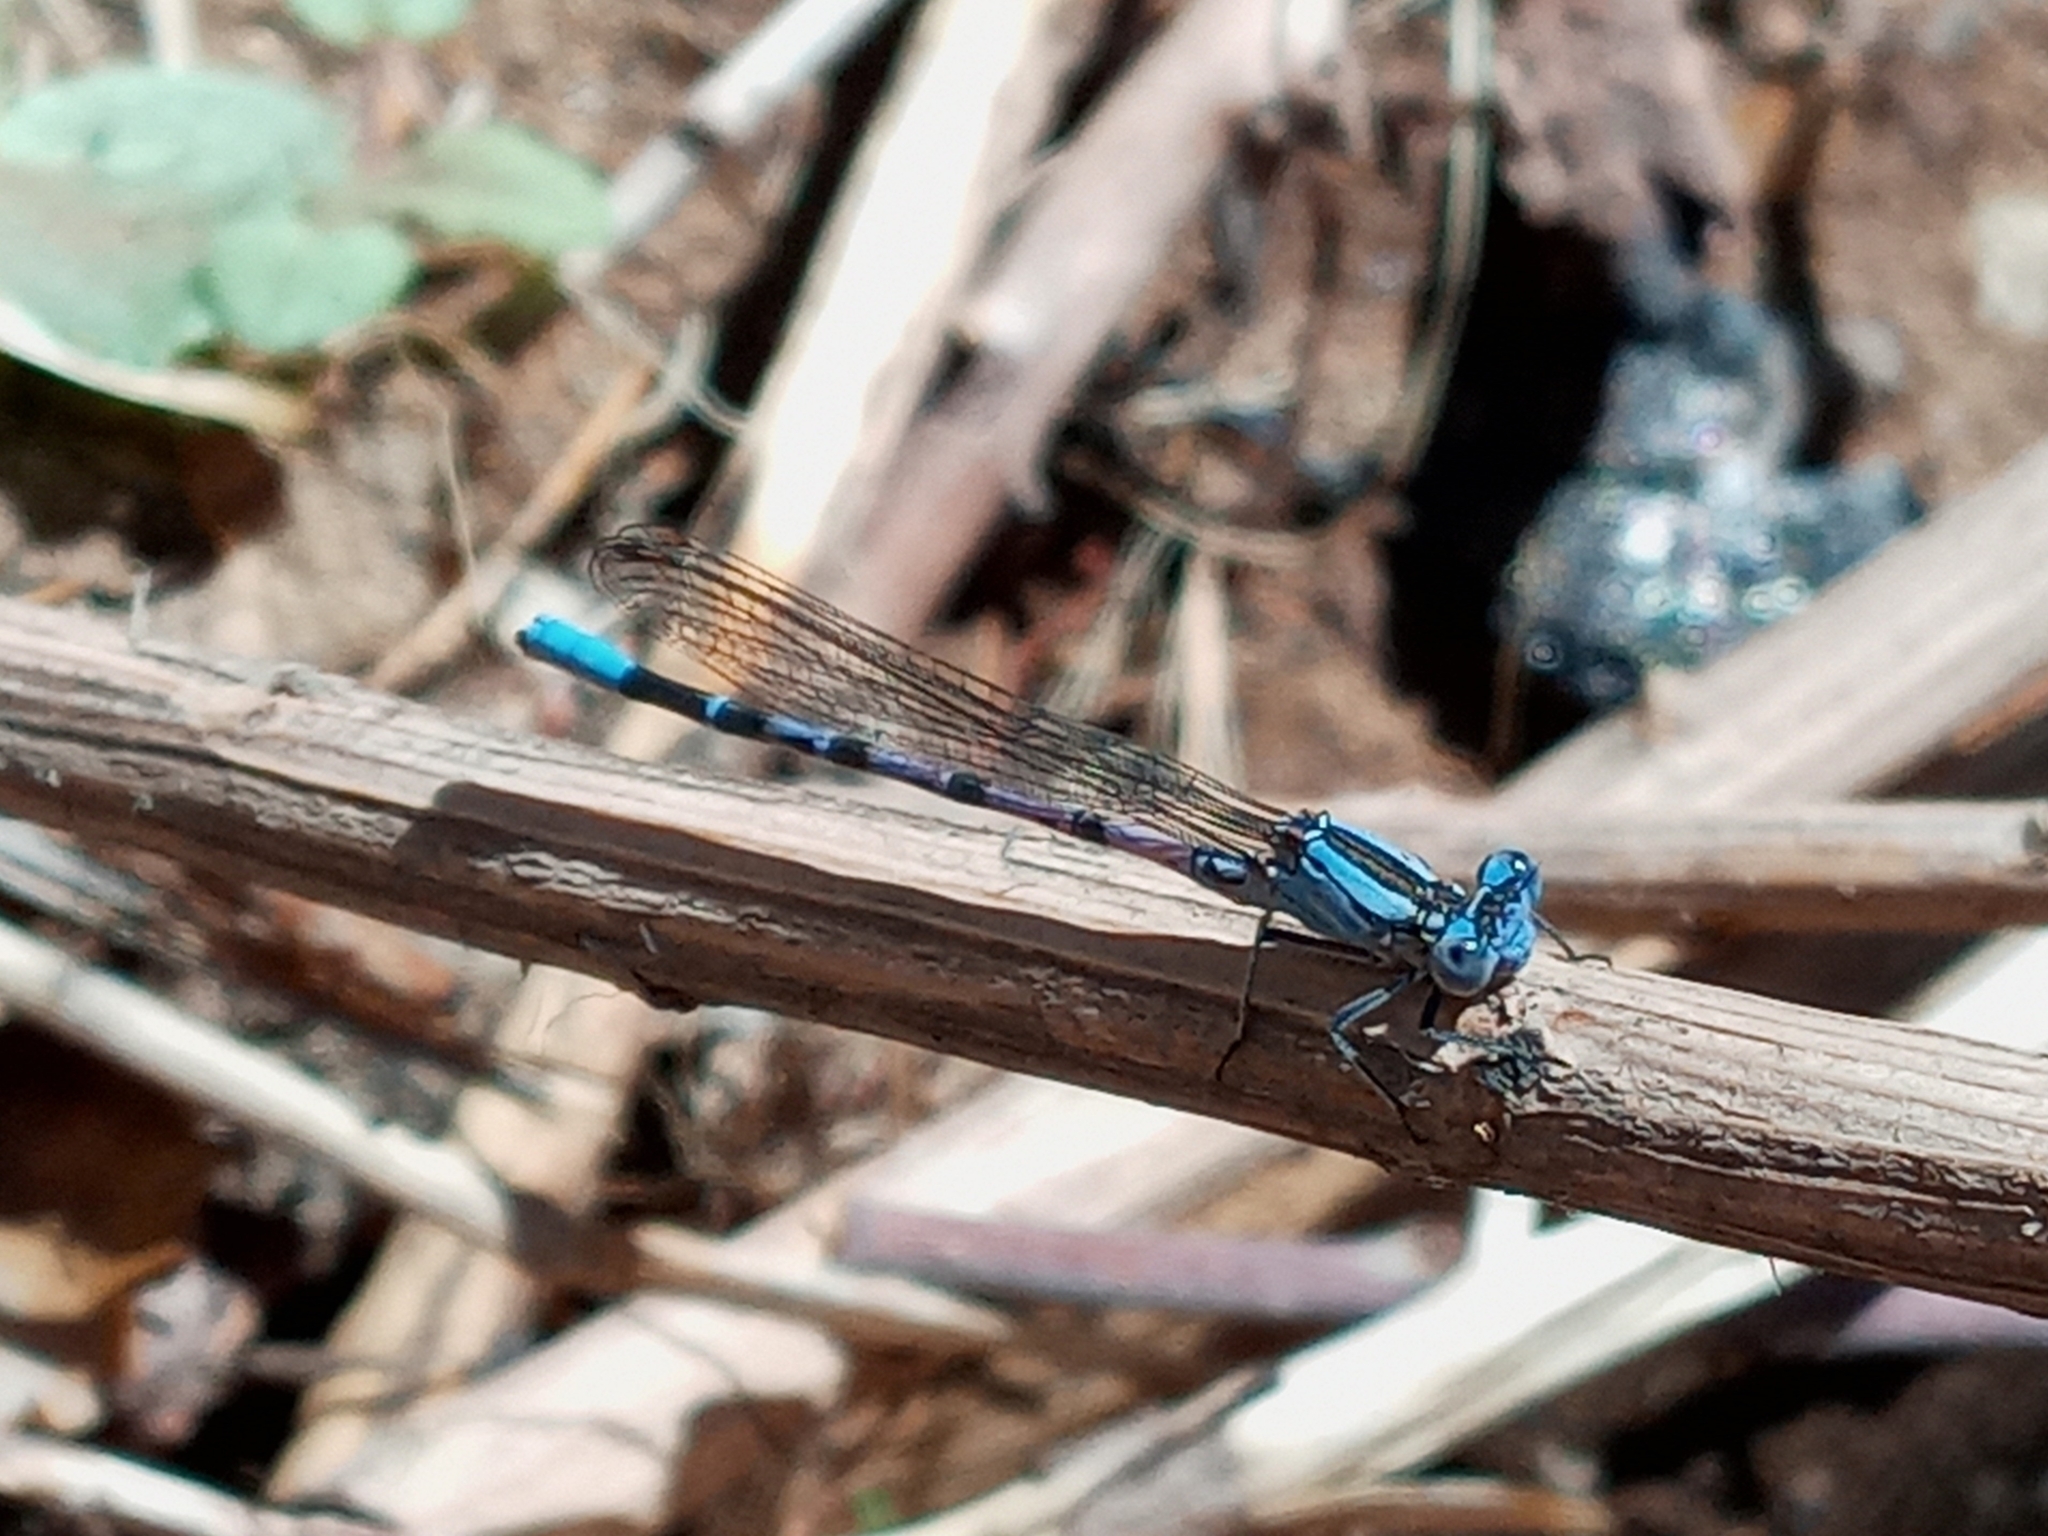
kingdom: Animalia
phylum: Arthropoda
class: Insecta
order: Odonata
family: Coenagrionidae
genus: Argia
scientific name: Argia vivida
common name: Vivid dancer
